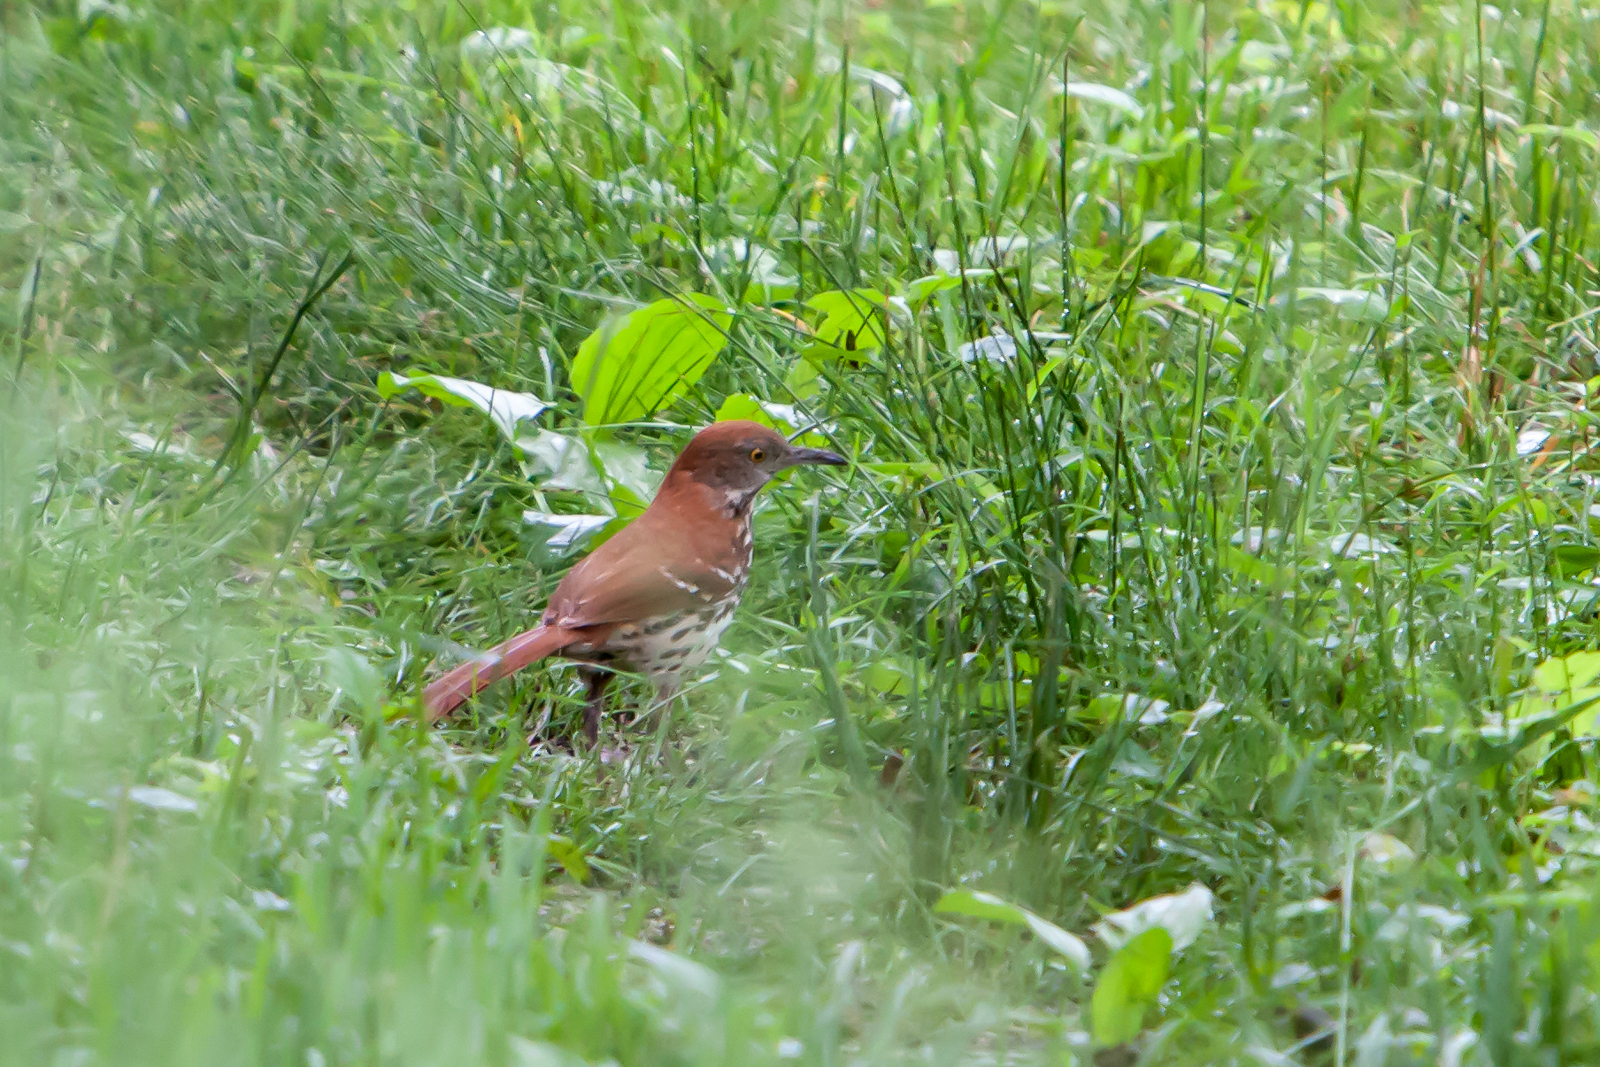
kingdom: Animalia
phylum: Chordata
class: Aves
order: Passeriformes
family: Mimidae
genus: Toxostoma
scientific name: Toxostoma rufum
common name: Brown thrasher
